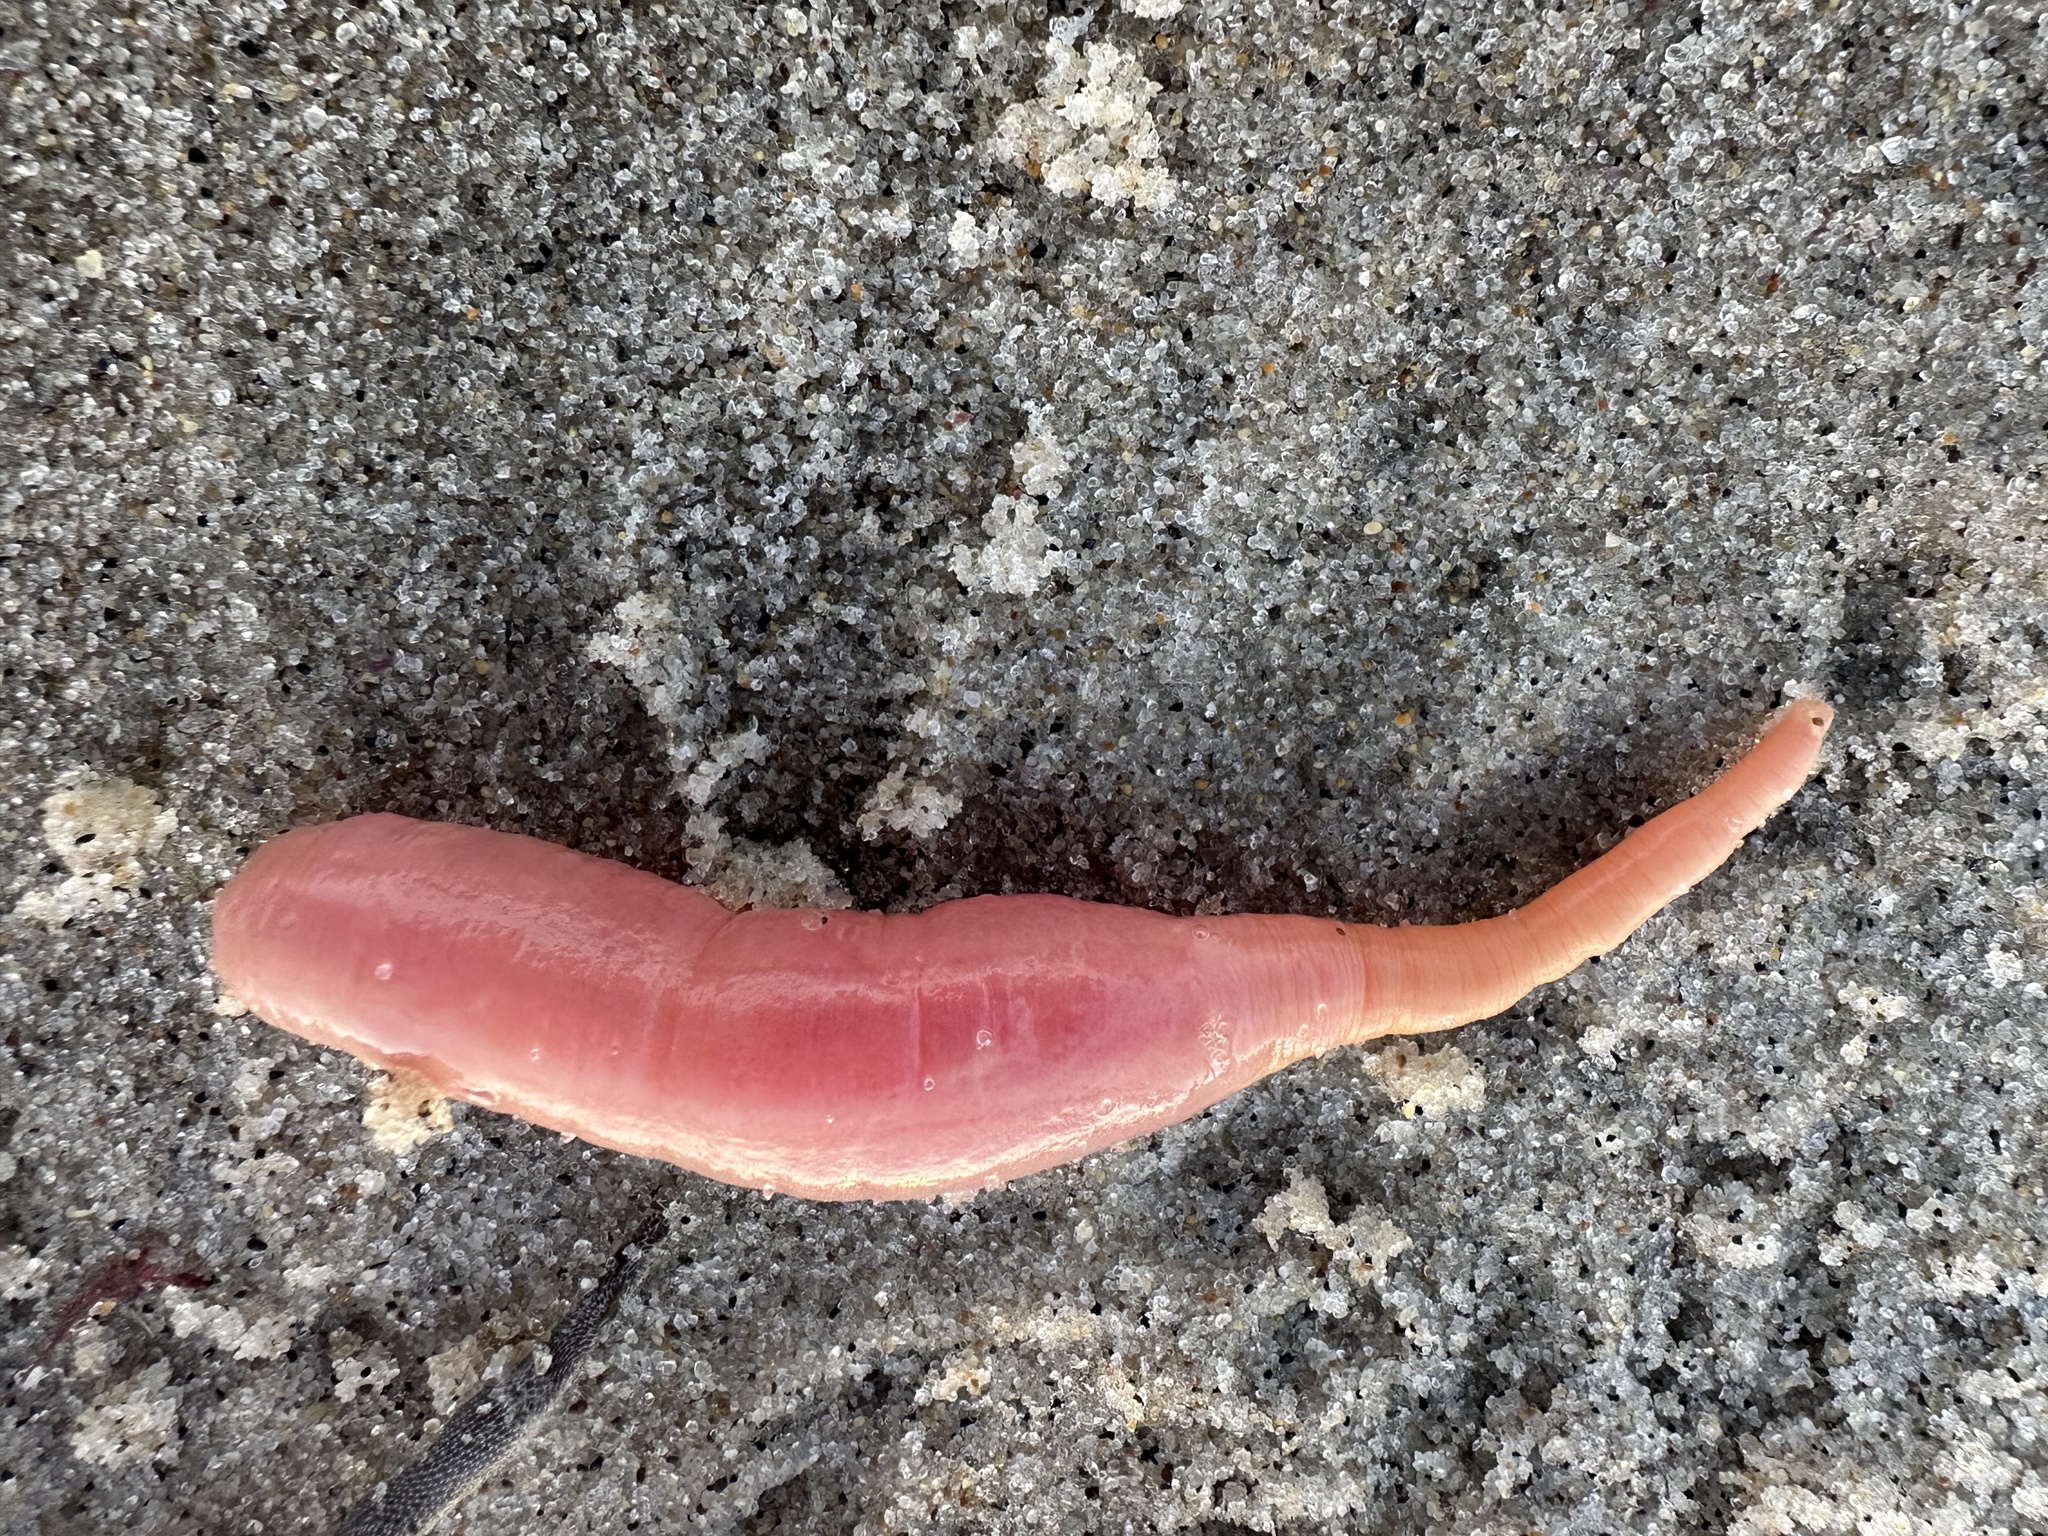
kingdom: Animalia
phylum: Echinodermata
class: Holothuroidea
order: Molpadida
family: Caudinidae
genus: Caudina
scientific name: Caudina arenata
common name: Sand-dwelling fusiform sea cucumber
